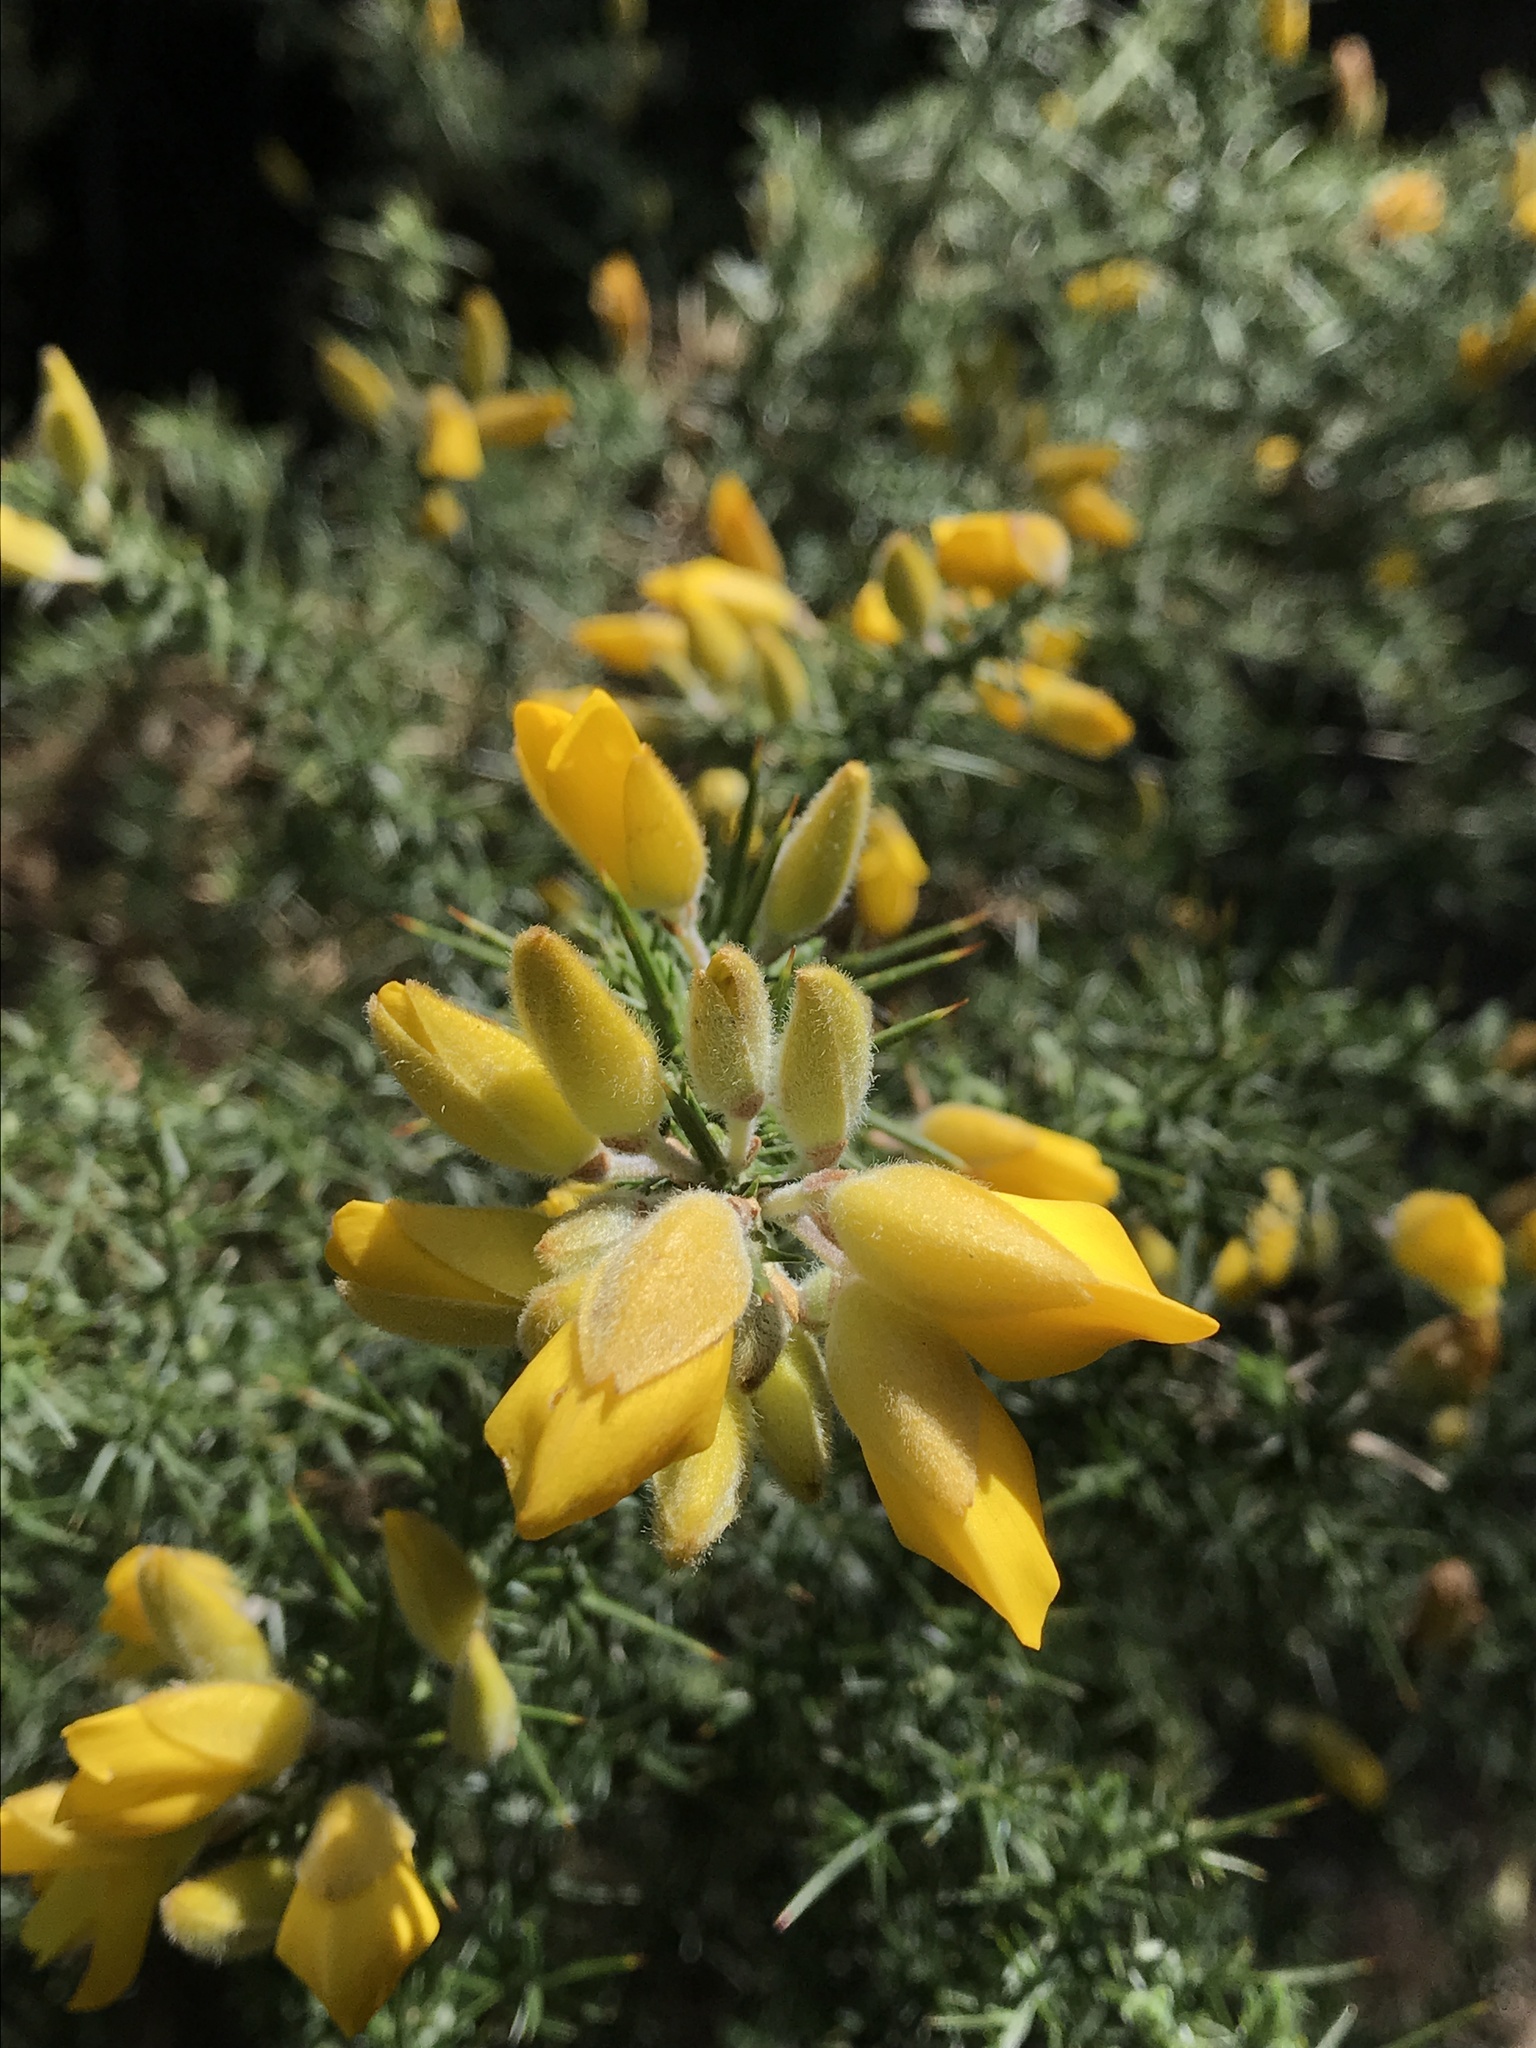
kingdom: Plantae
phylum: Tracheophyta
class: Magnoliopsida
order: Fabales
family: Fabaceae
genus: Ulex
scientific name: Ulex europaeus
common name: Common gorse
